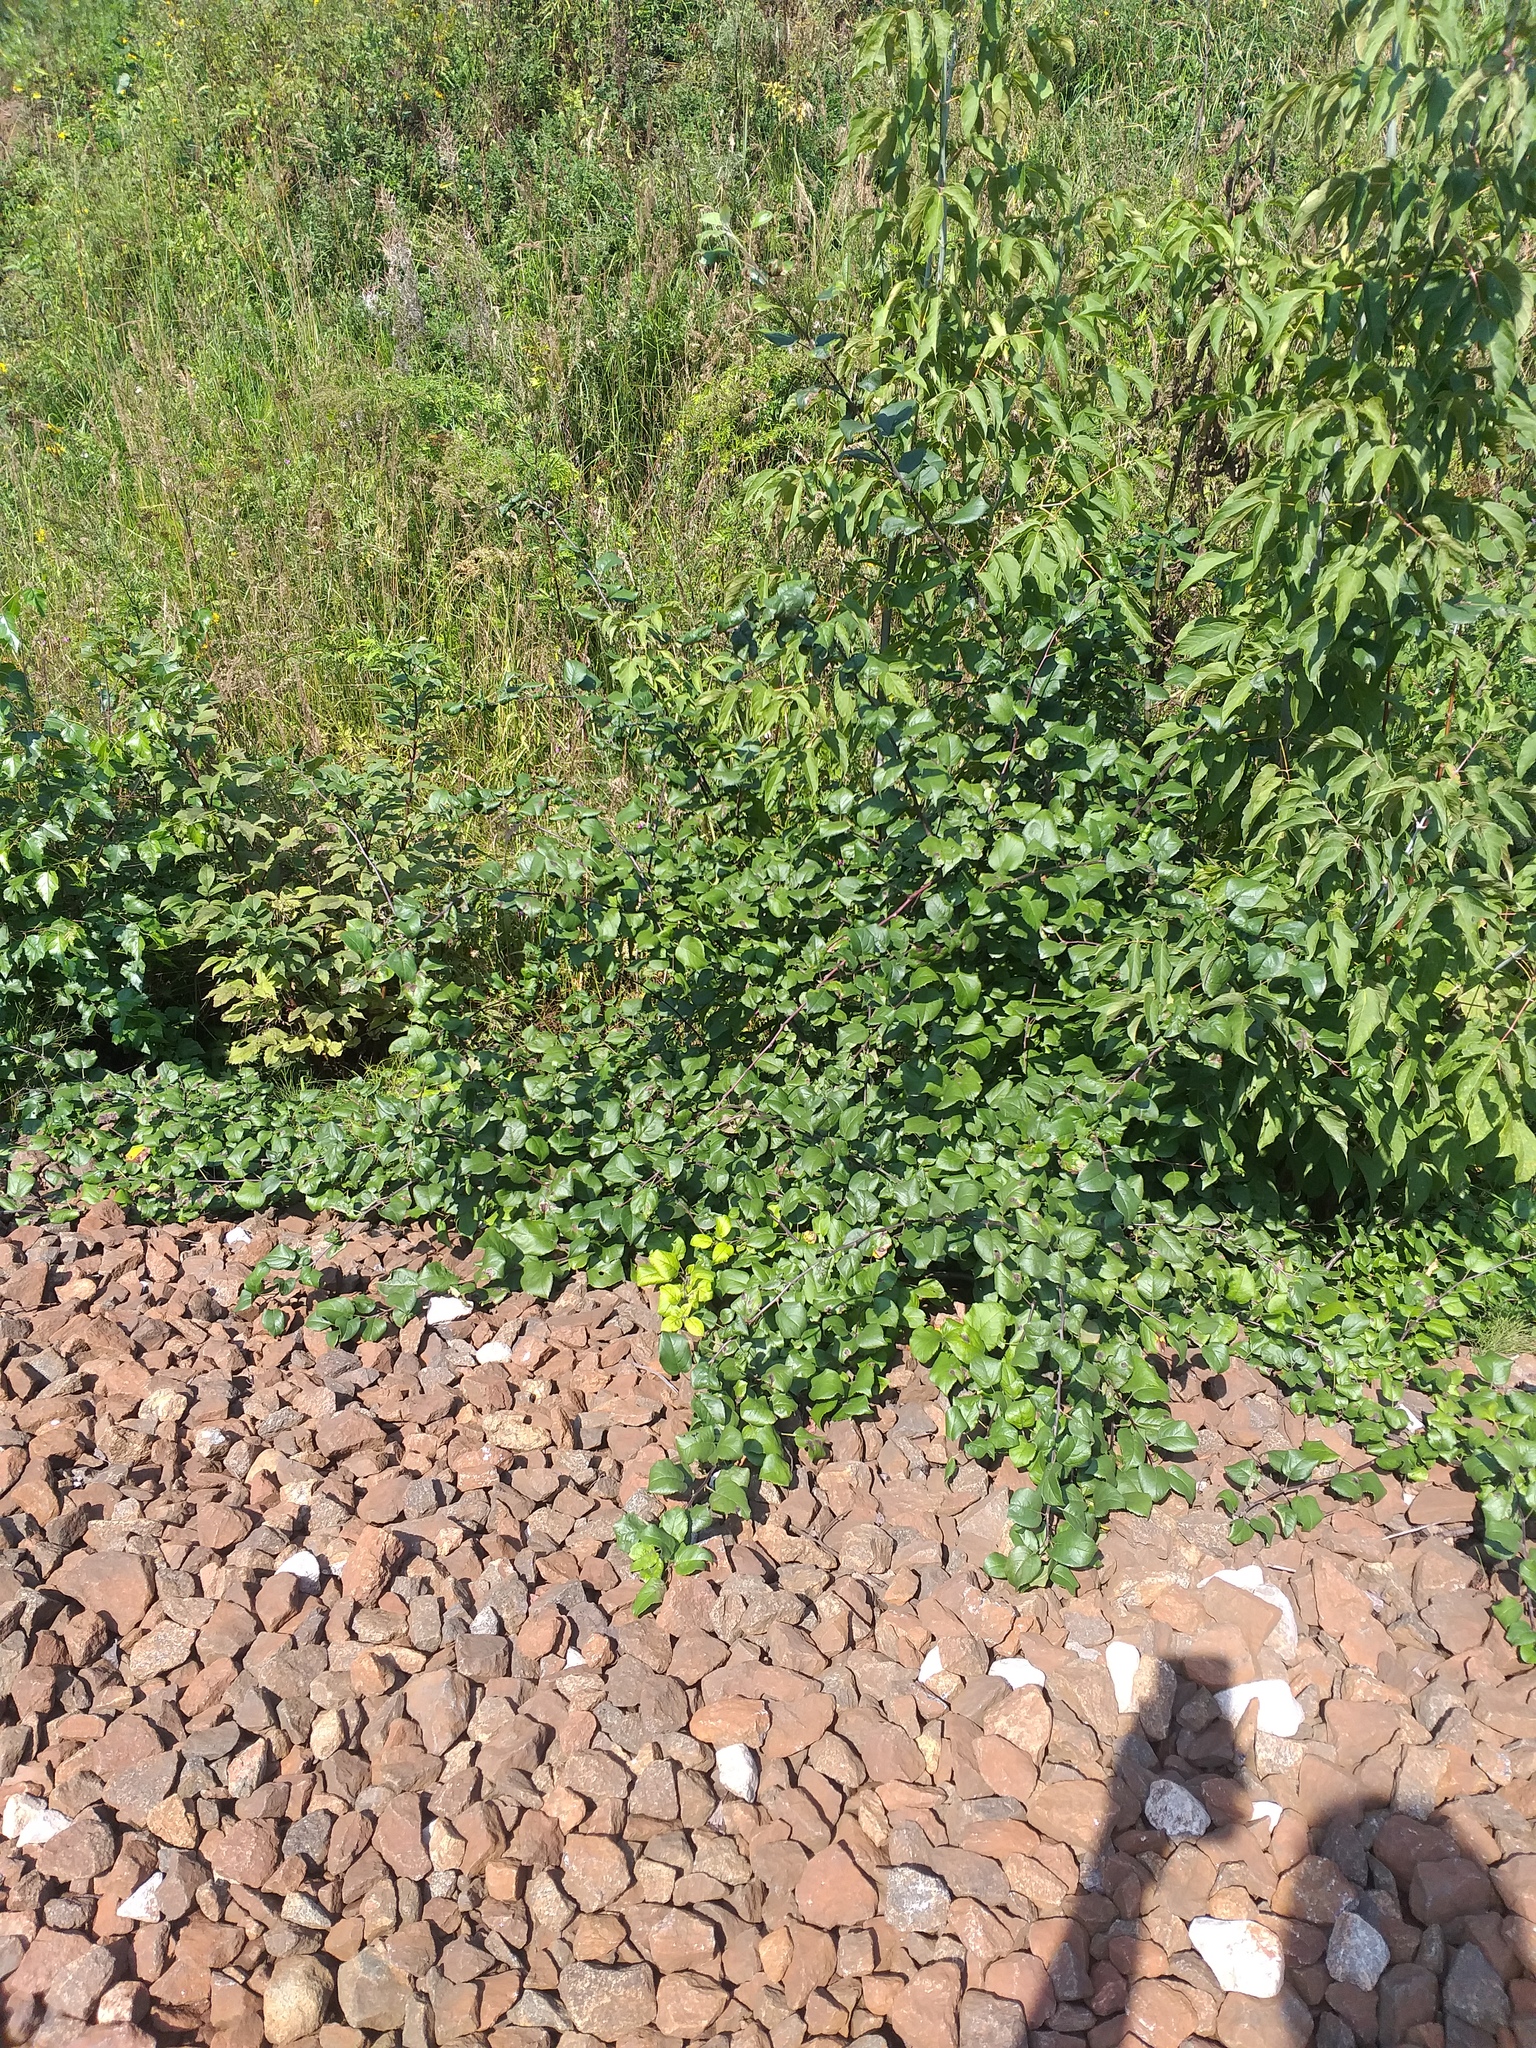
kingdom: Plantae
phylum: Tracheophyta
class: Magnoliopsida
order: Rosales
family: Rosaceae
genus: Malus
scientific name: Malus domestica
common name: Apple
